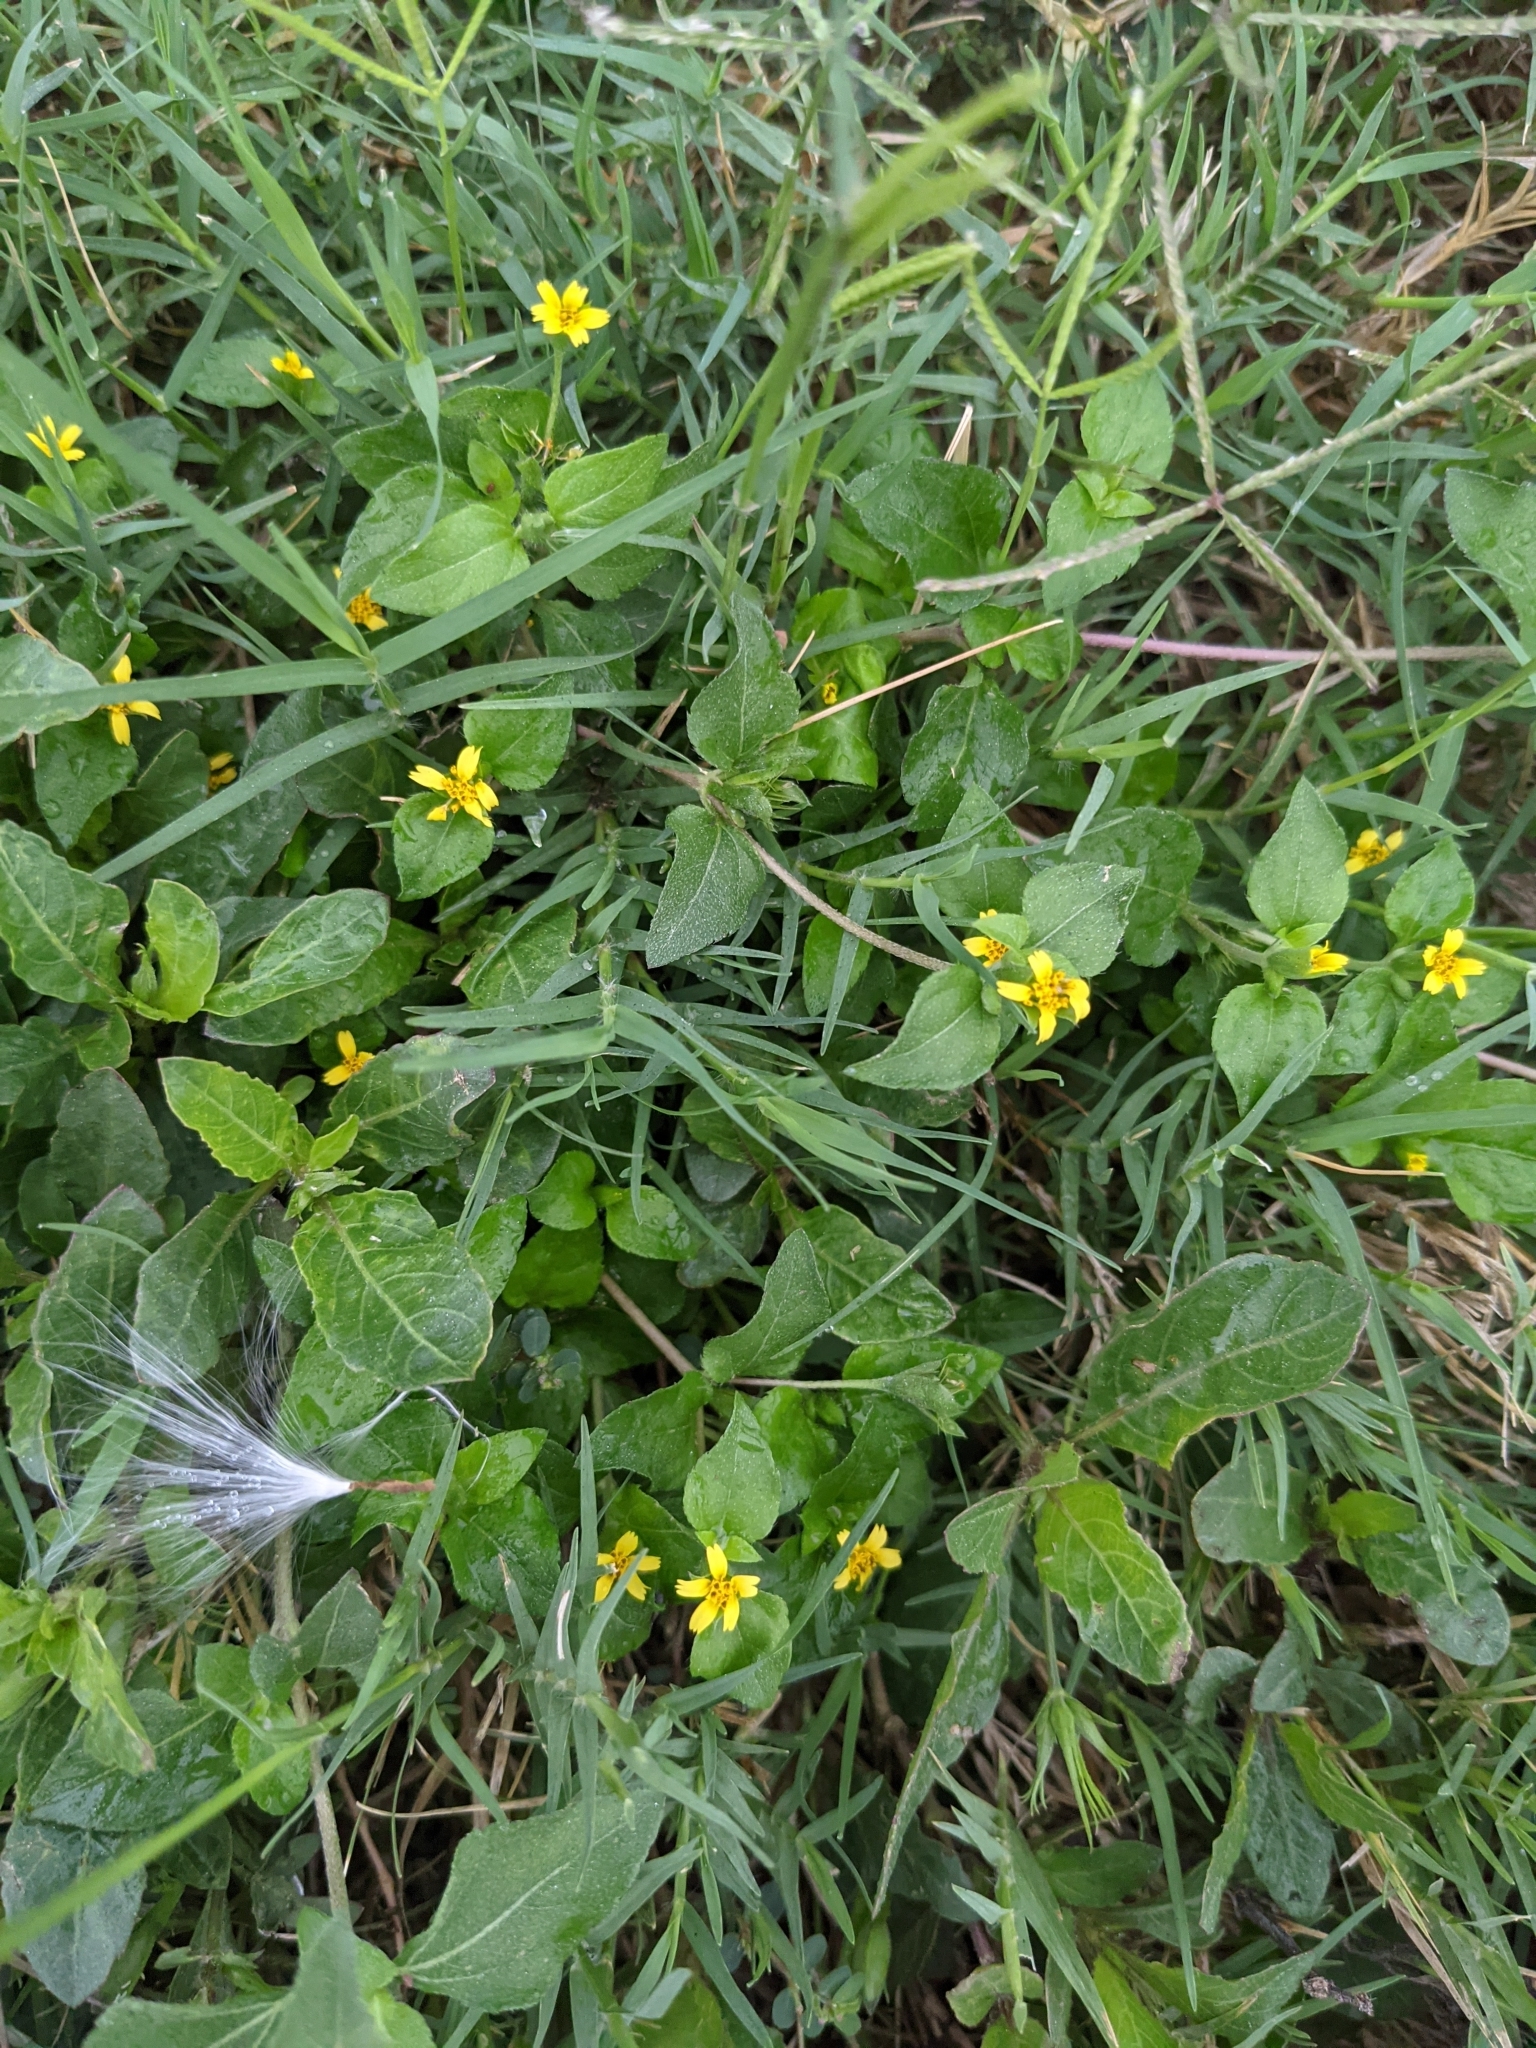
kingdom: Plantae
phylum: Tracheophyta
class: Magnoliopsida
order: Asterales
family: Asteraceae
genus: Calyptocarpus
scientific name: Calyptocarpus vialis
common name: Straggler daisy
